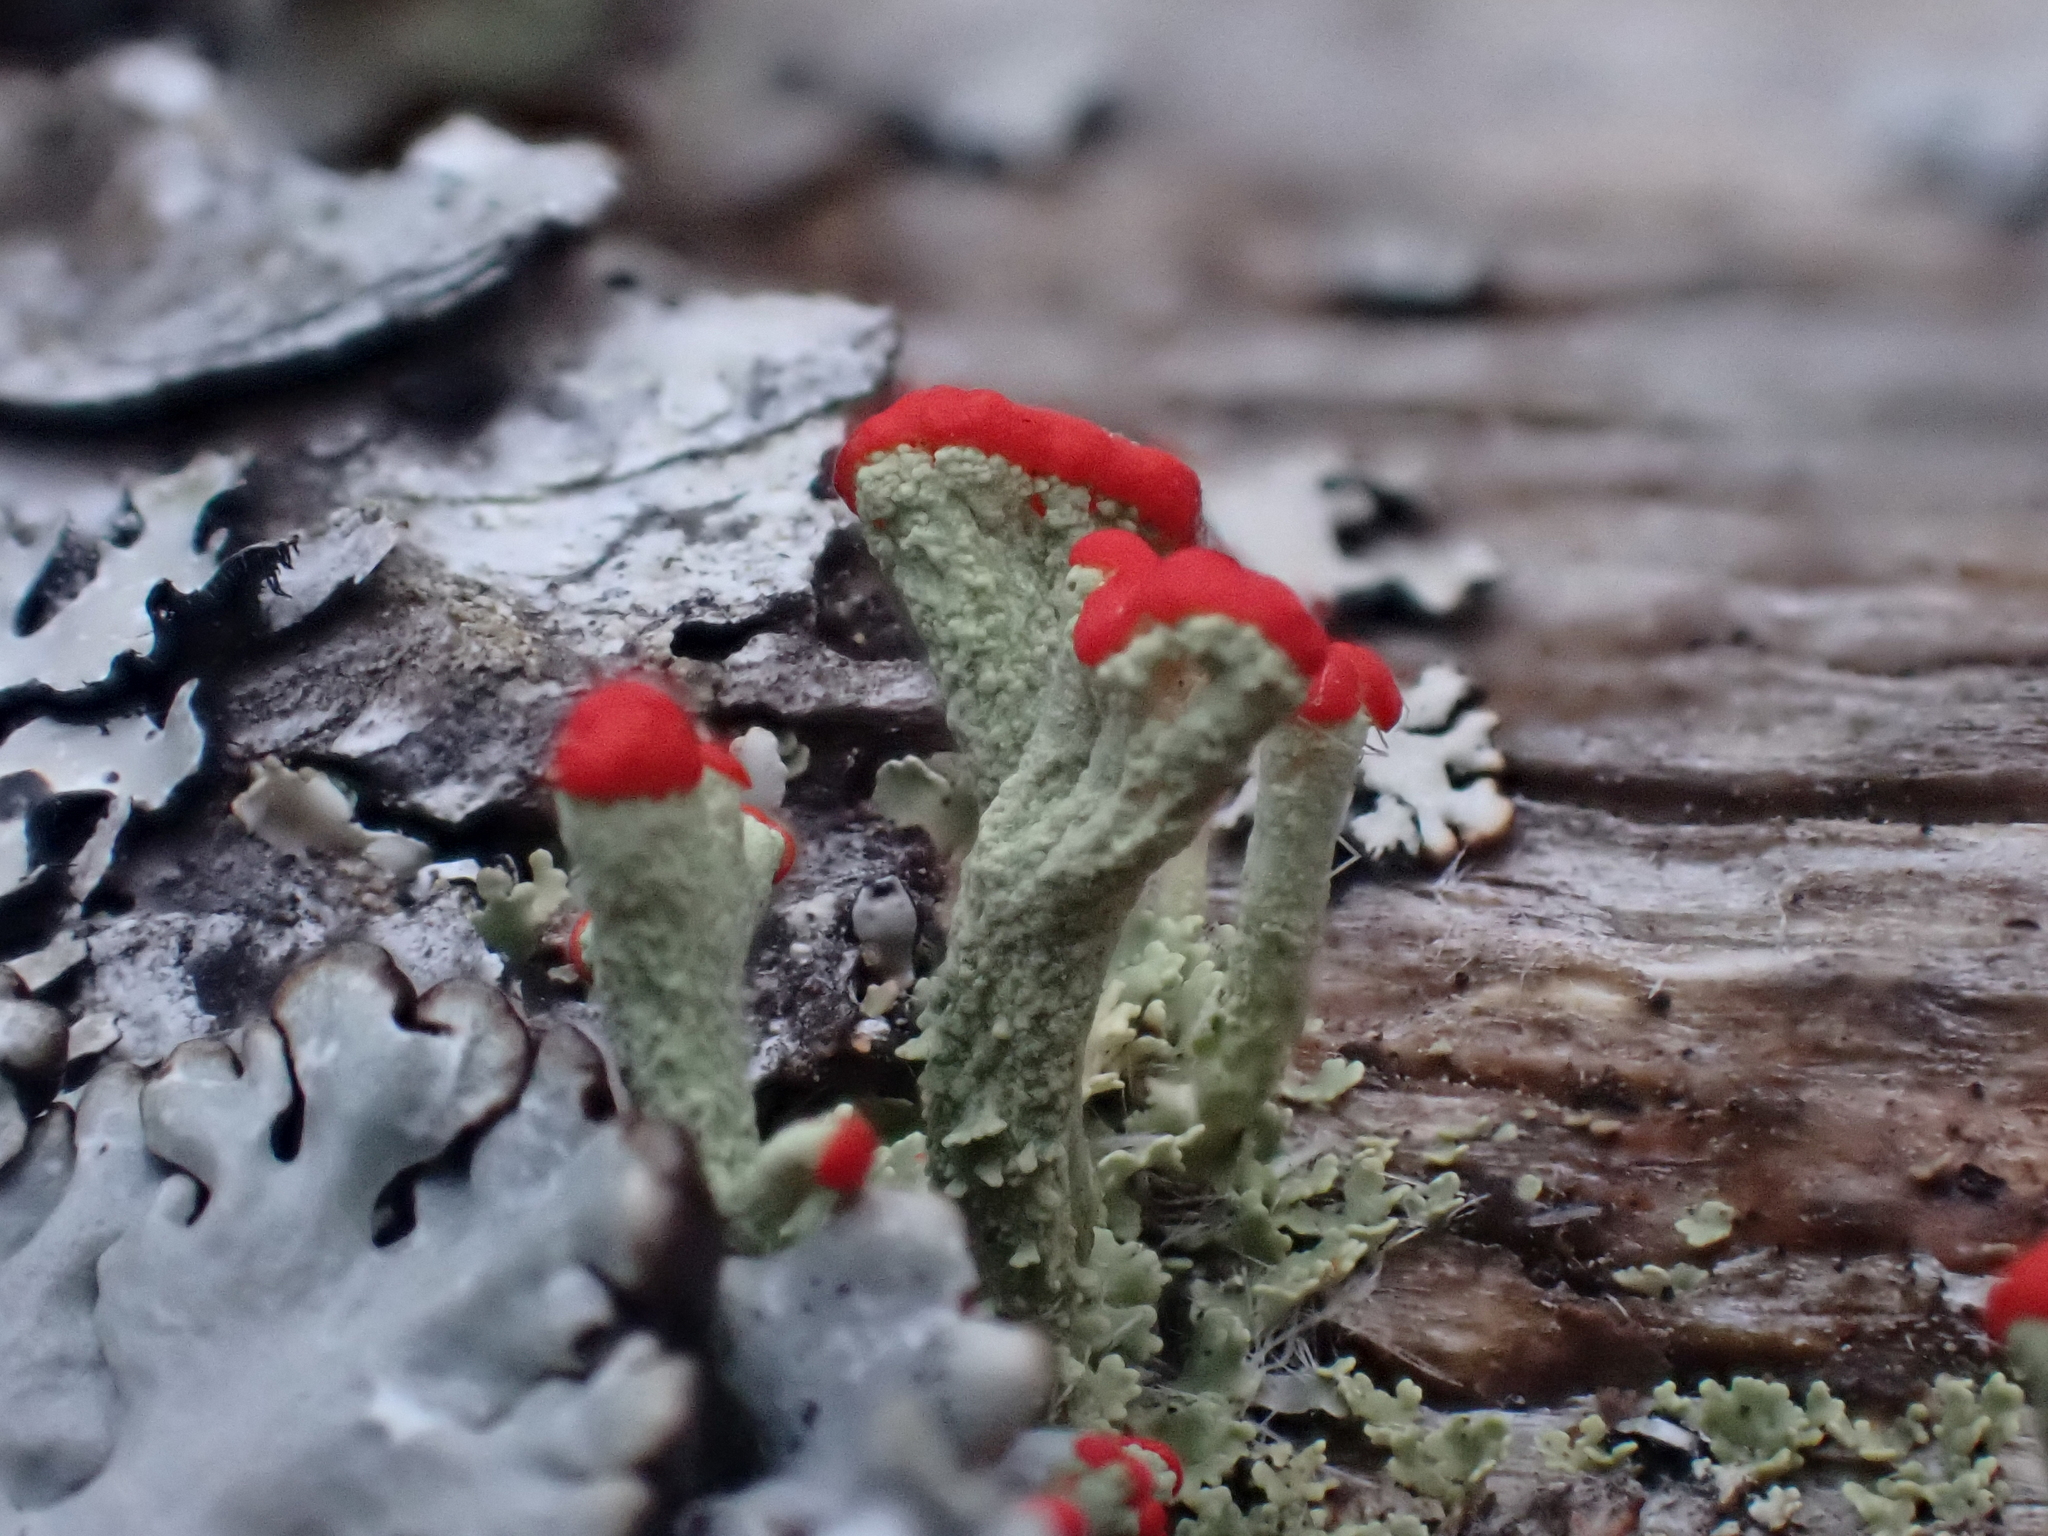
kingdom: Fungi
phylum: Ascomycota
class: Lecanoromycetes
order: Lecanorales
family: Cladoniaceae
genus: Cladonia
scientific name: Cladonia cristatella
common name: British soldier lichen
